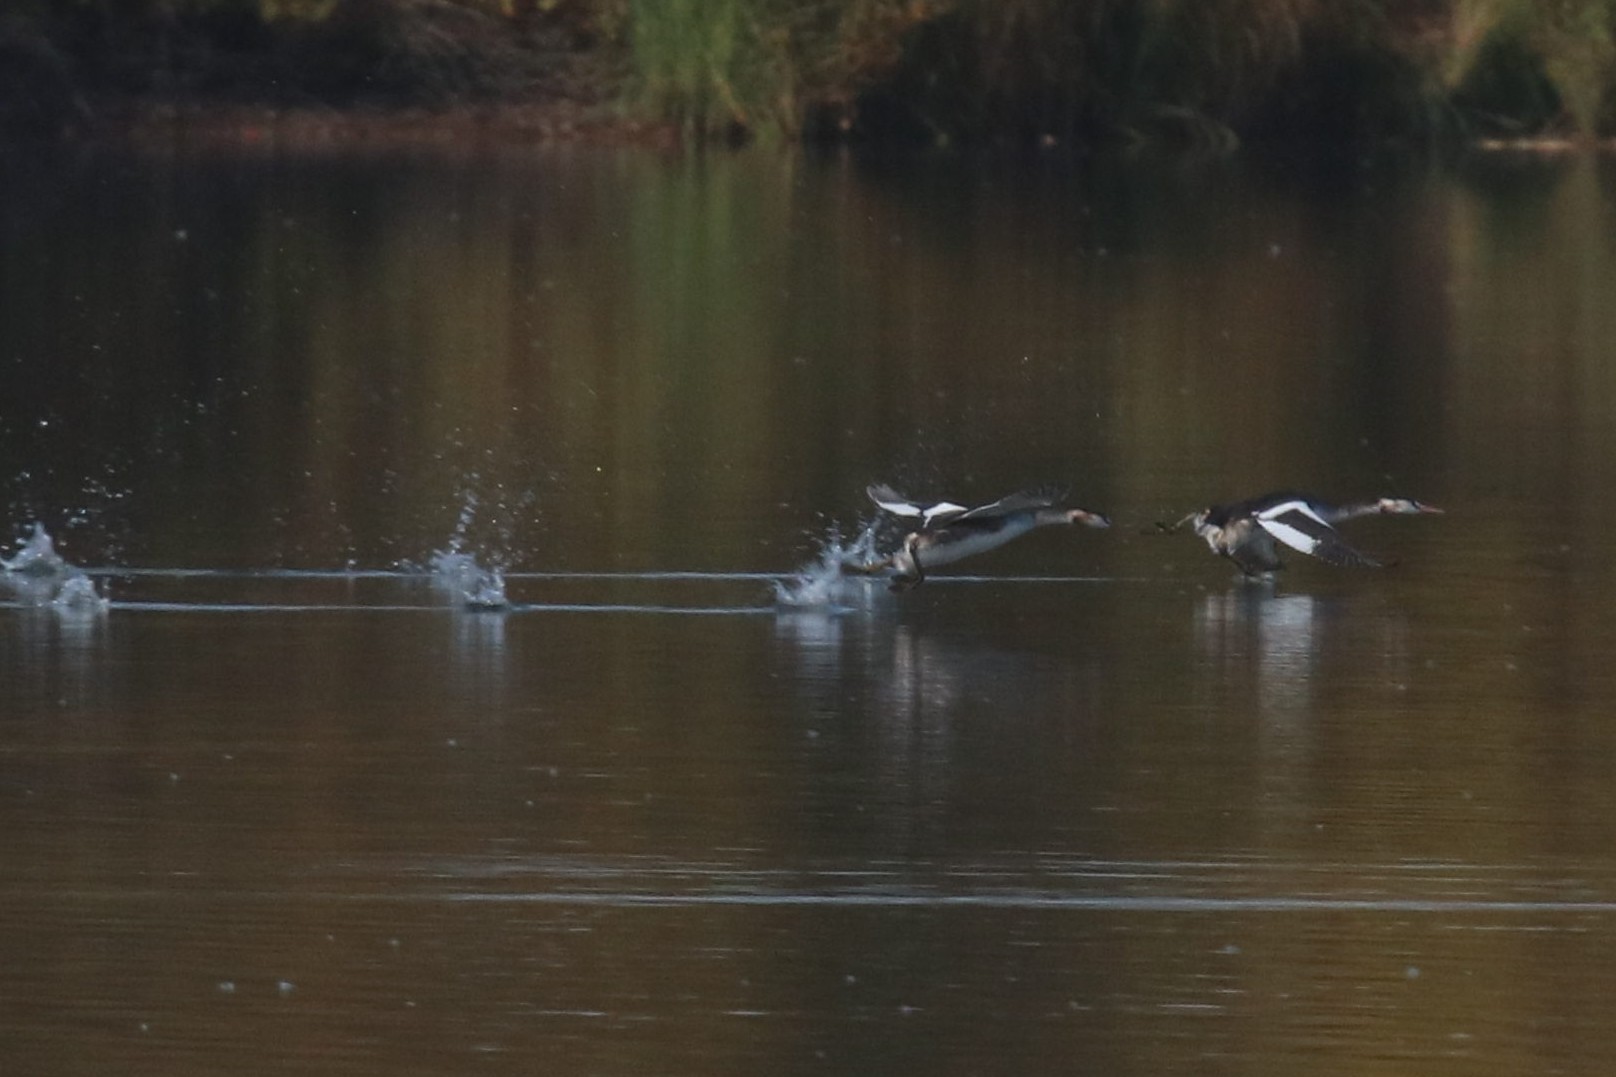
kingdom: Animalia
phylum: Chordata
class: Aves
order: Podicipediformes
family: Podicipedidae
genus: Podiceps
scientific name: Podiceps cristatus
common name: Great crested grebe
